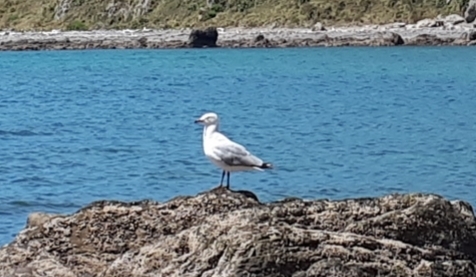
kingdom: Animalia
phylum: Chordata
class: Aves
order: Charadriiformes
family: Laridae
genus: Chroicocephalus
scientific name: Chroicocephalus novaehollandiae
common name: Silver gull
